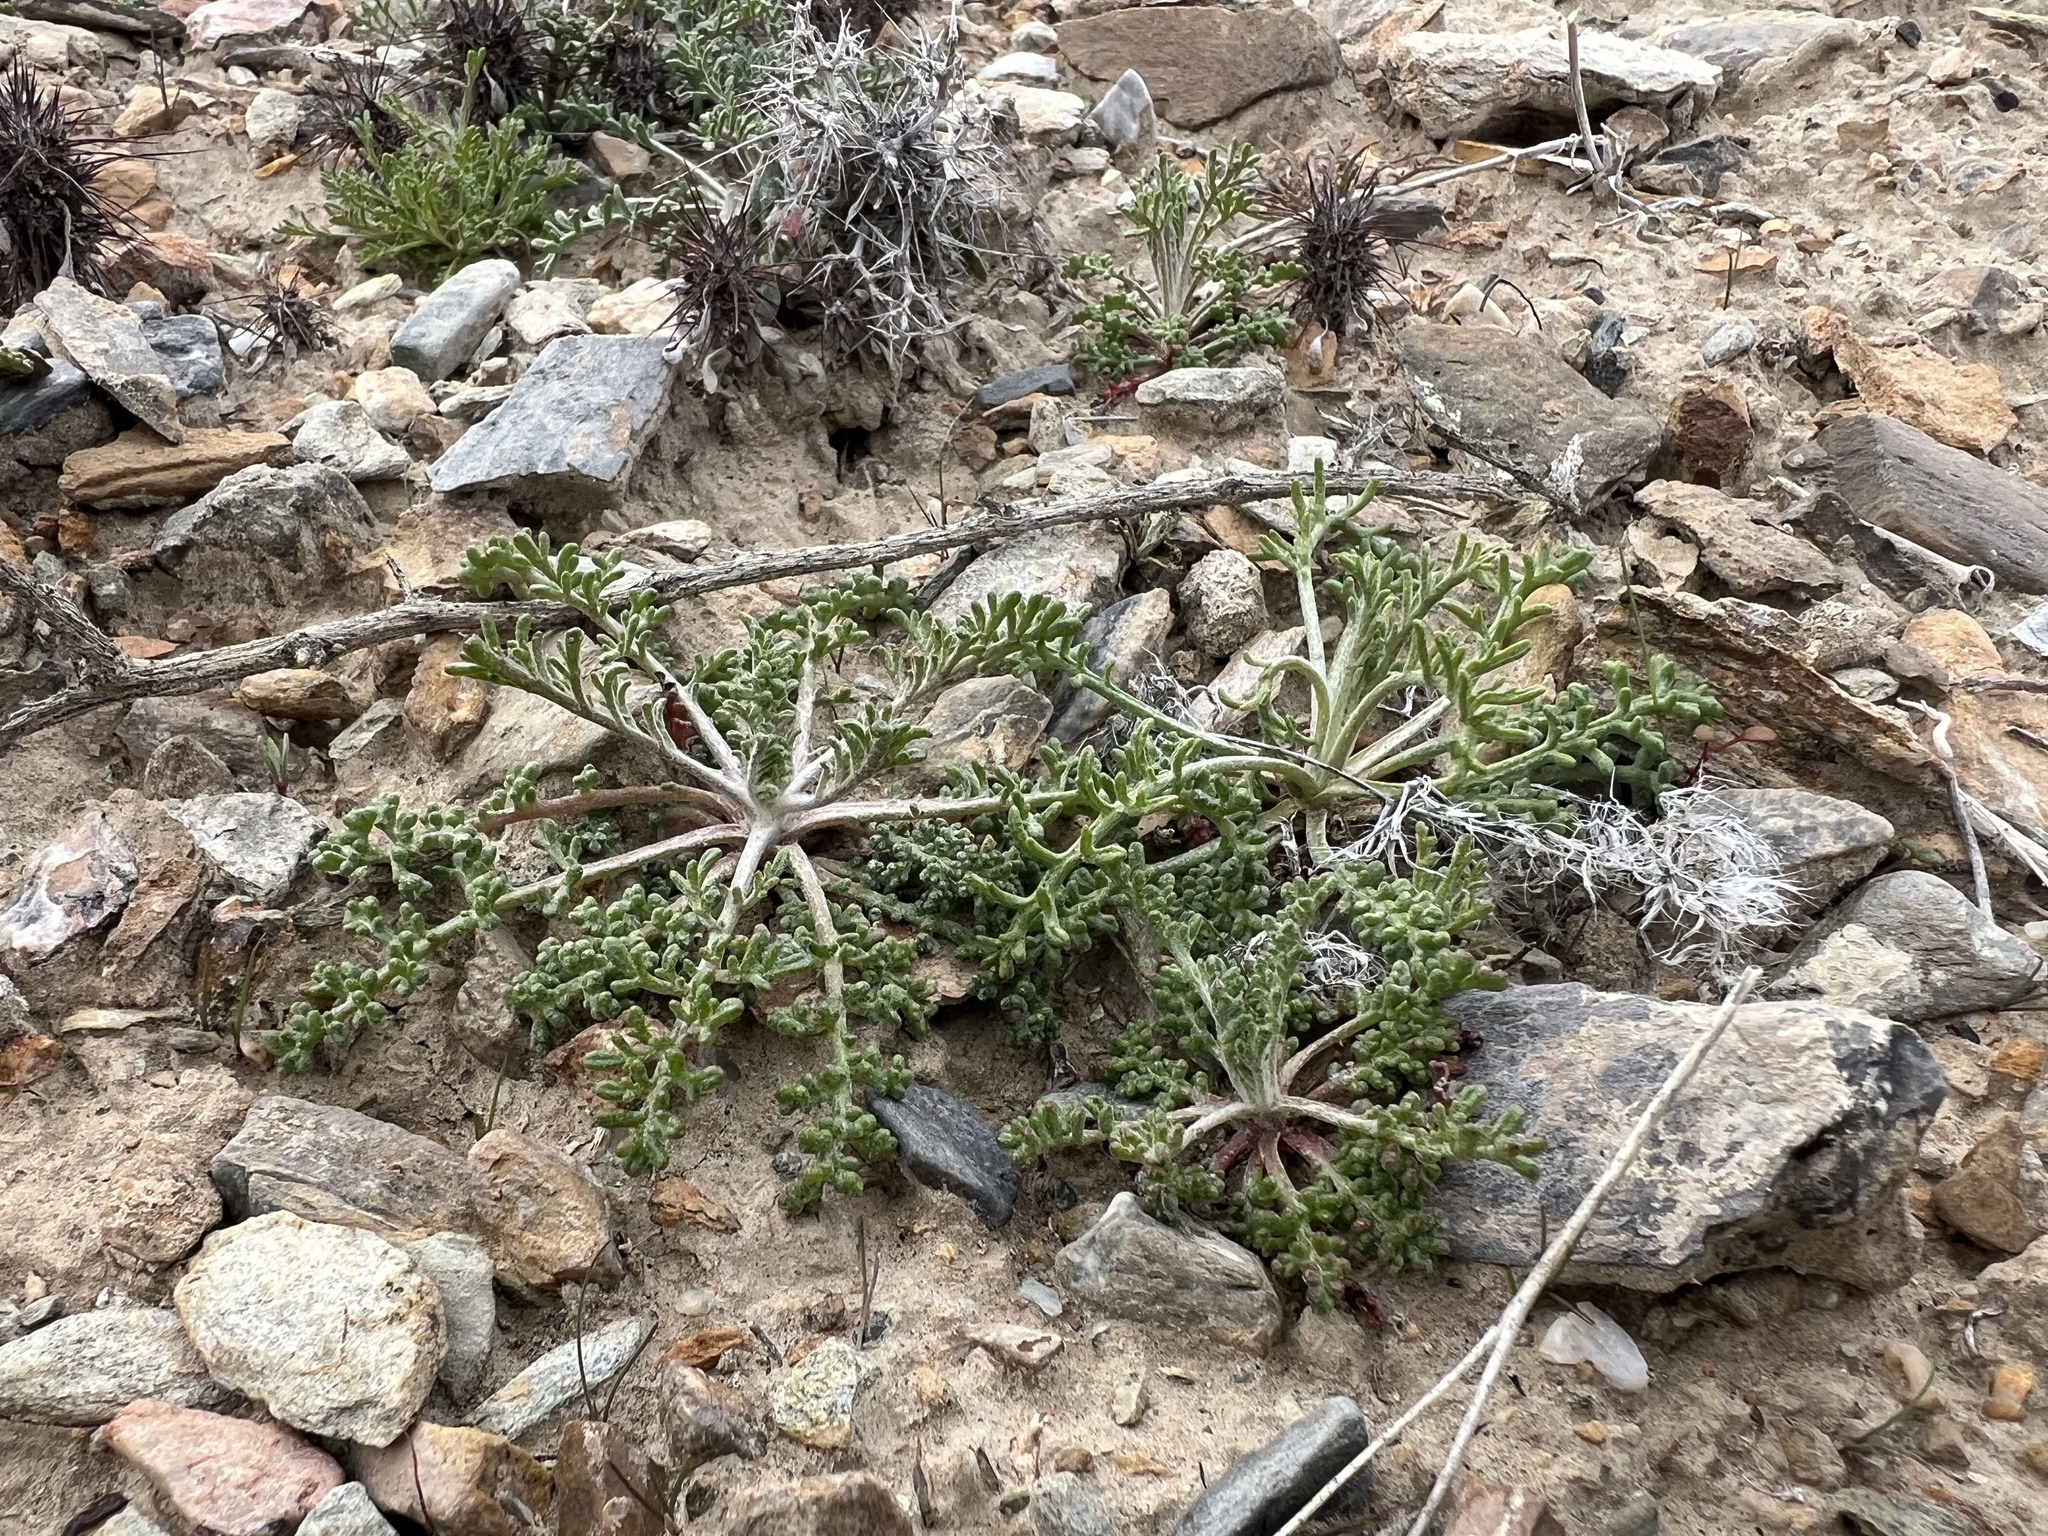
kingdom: Plantae
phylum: Tracheophyta
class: Magnoliopsida
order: Asterales
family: Asteraceae
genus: Chaenactis
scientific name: Chaenactis stevioides
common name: Desert pincushion
